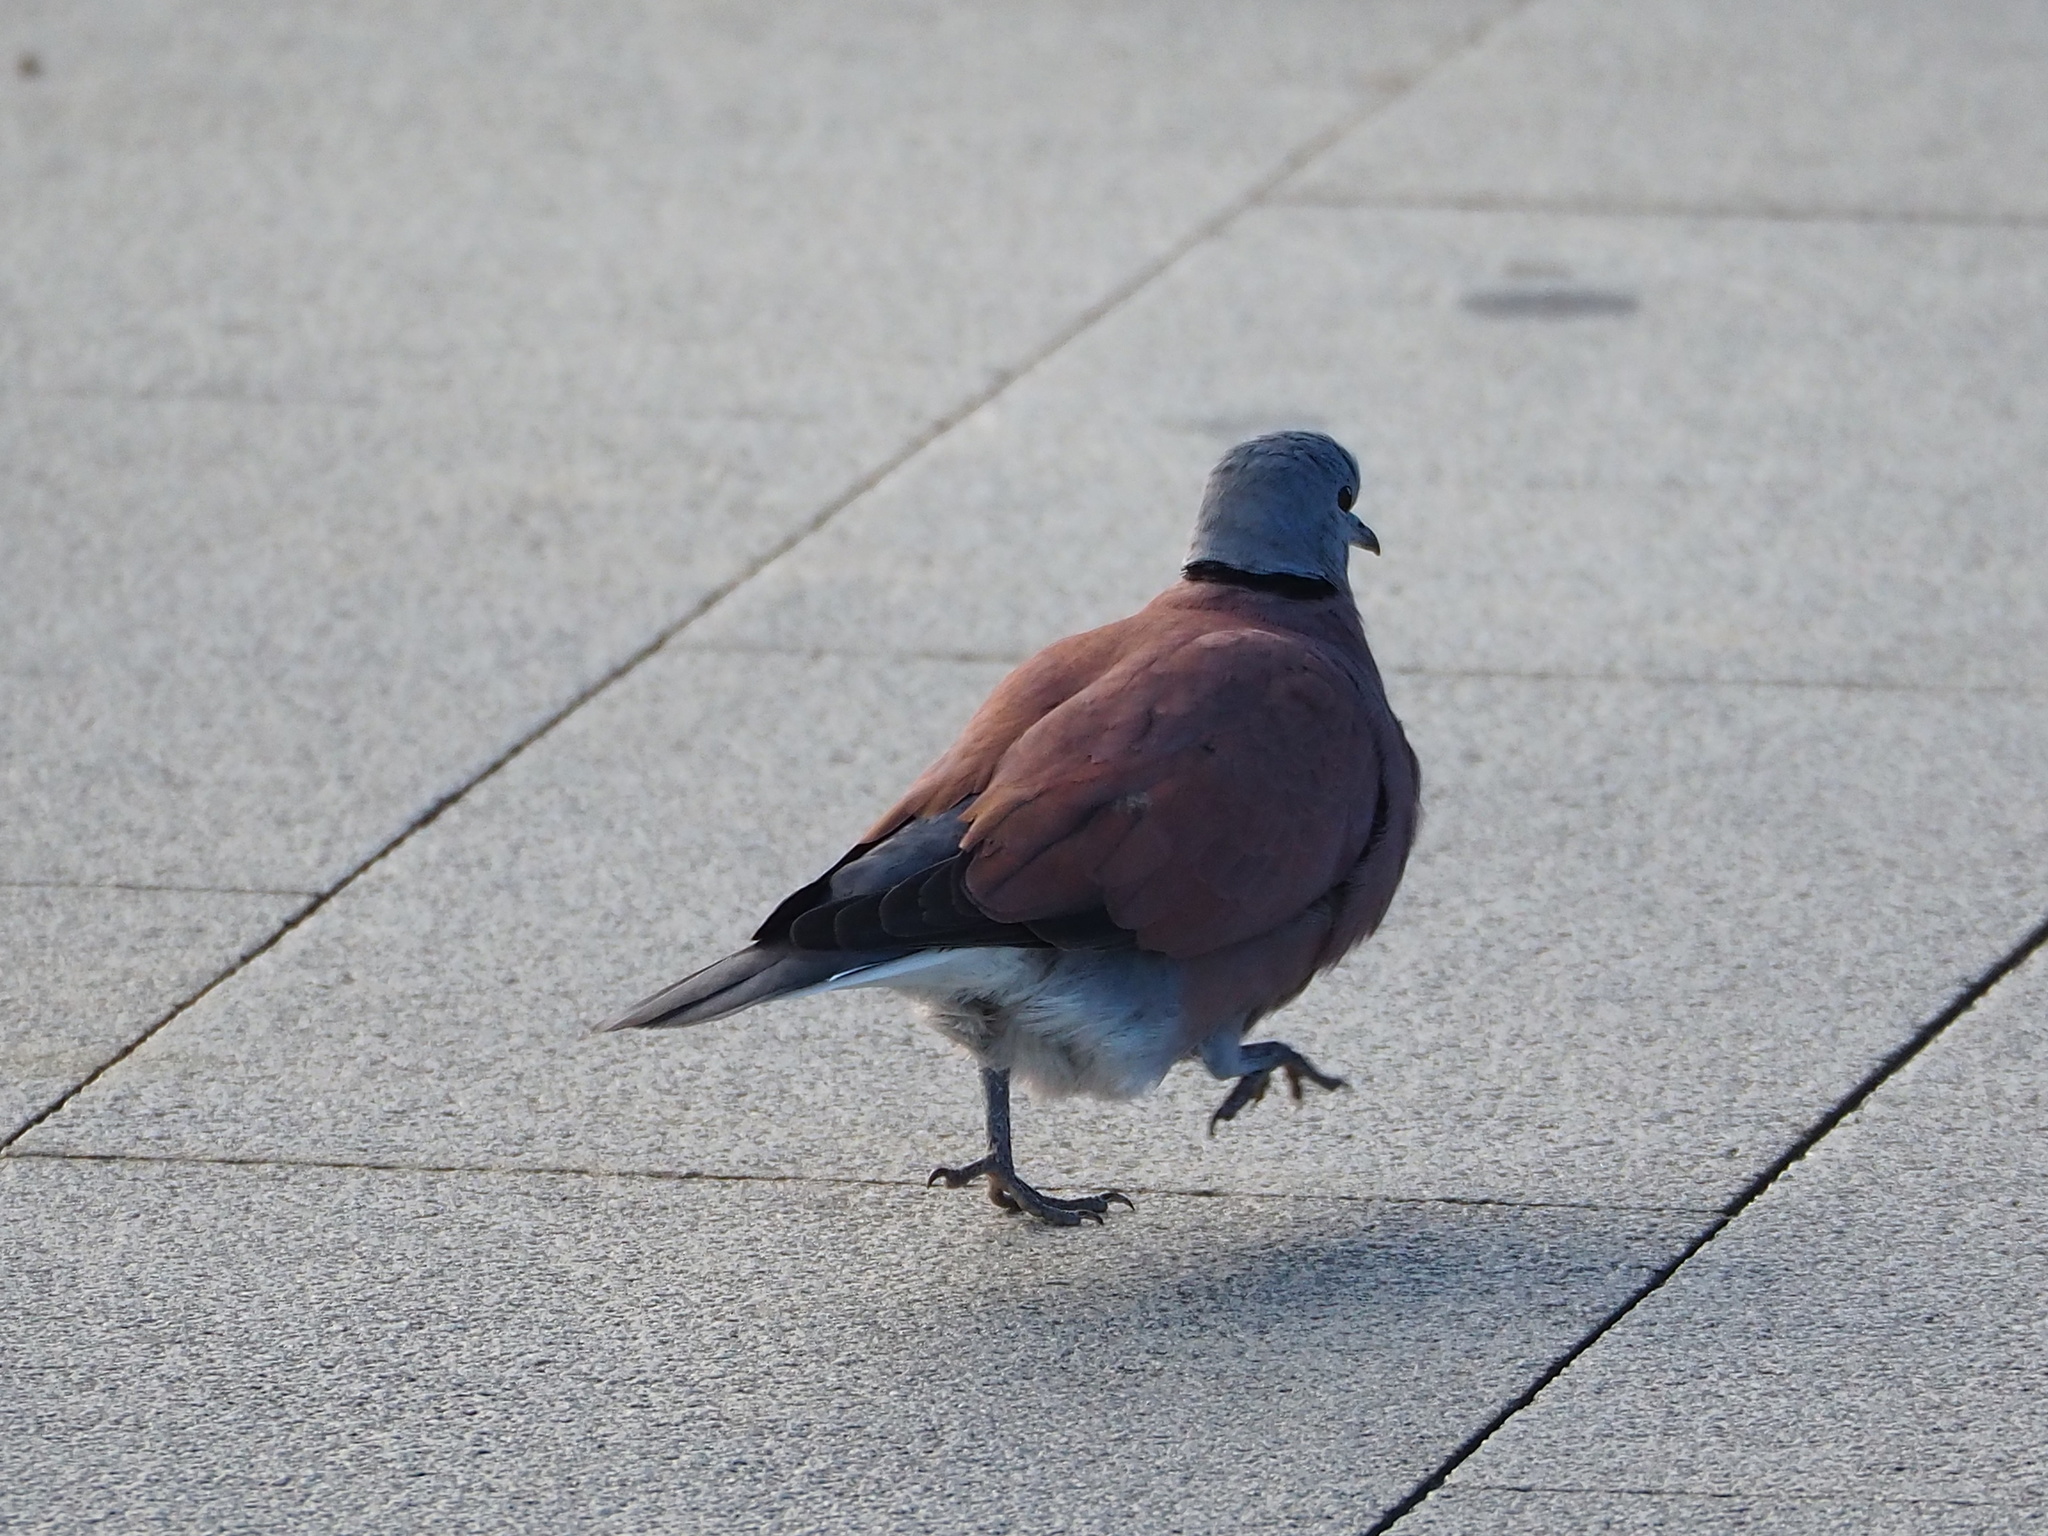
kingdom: Animalia
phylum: Chordata
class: Aves
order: Columbiformes
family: Columbidae
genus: Streptopelia
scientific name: Streptopelia tranquebarica
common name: Red turtle dove
